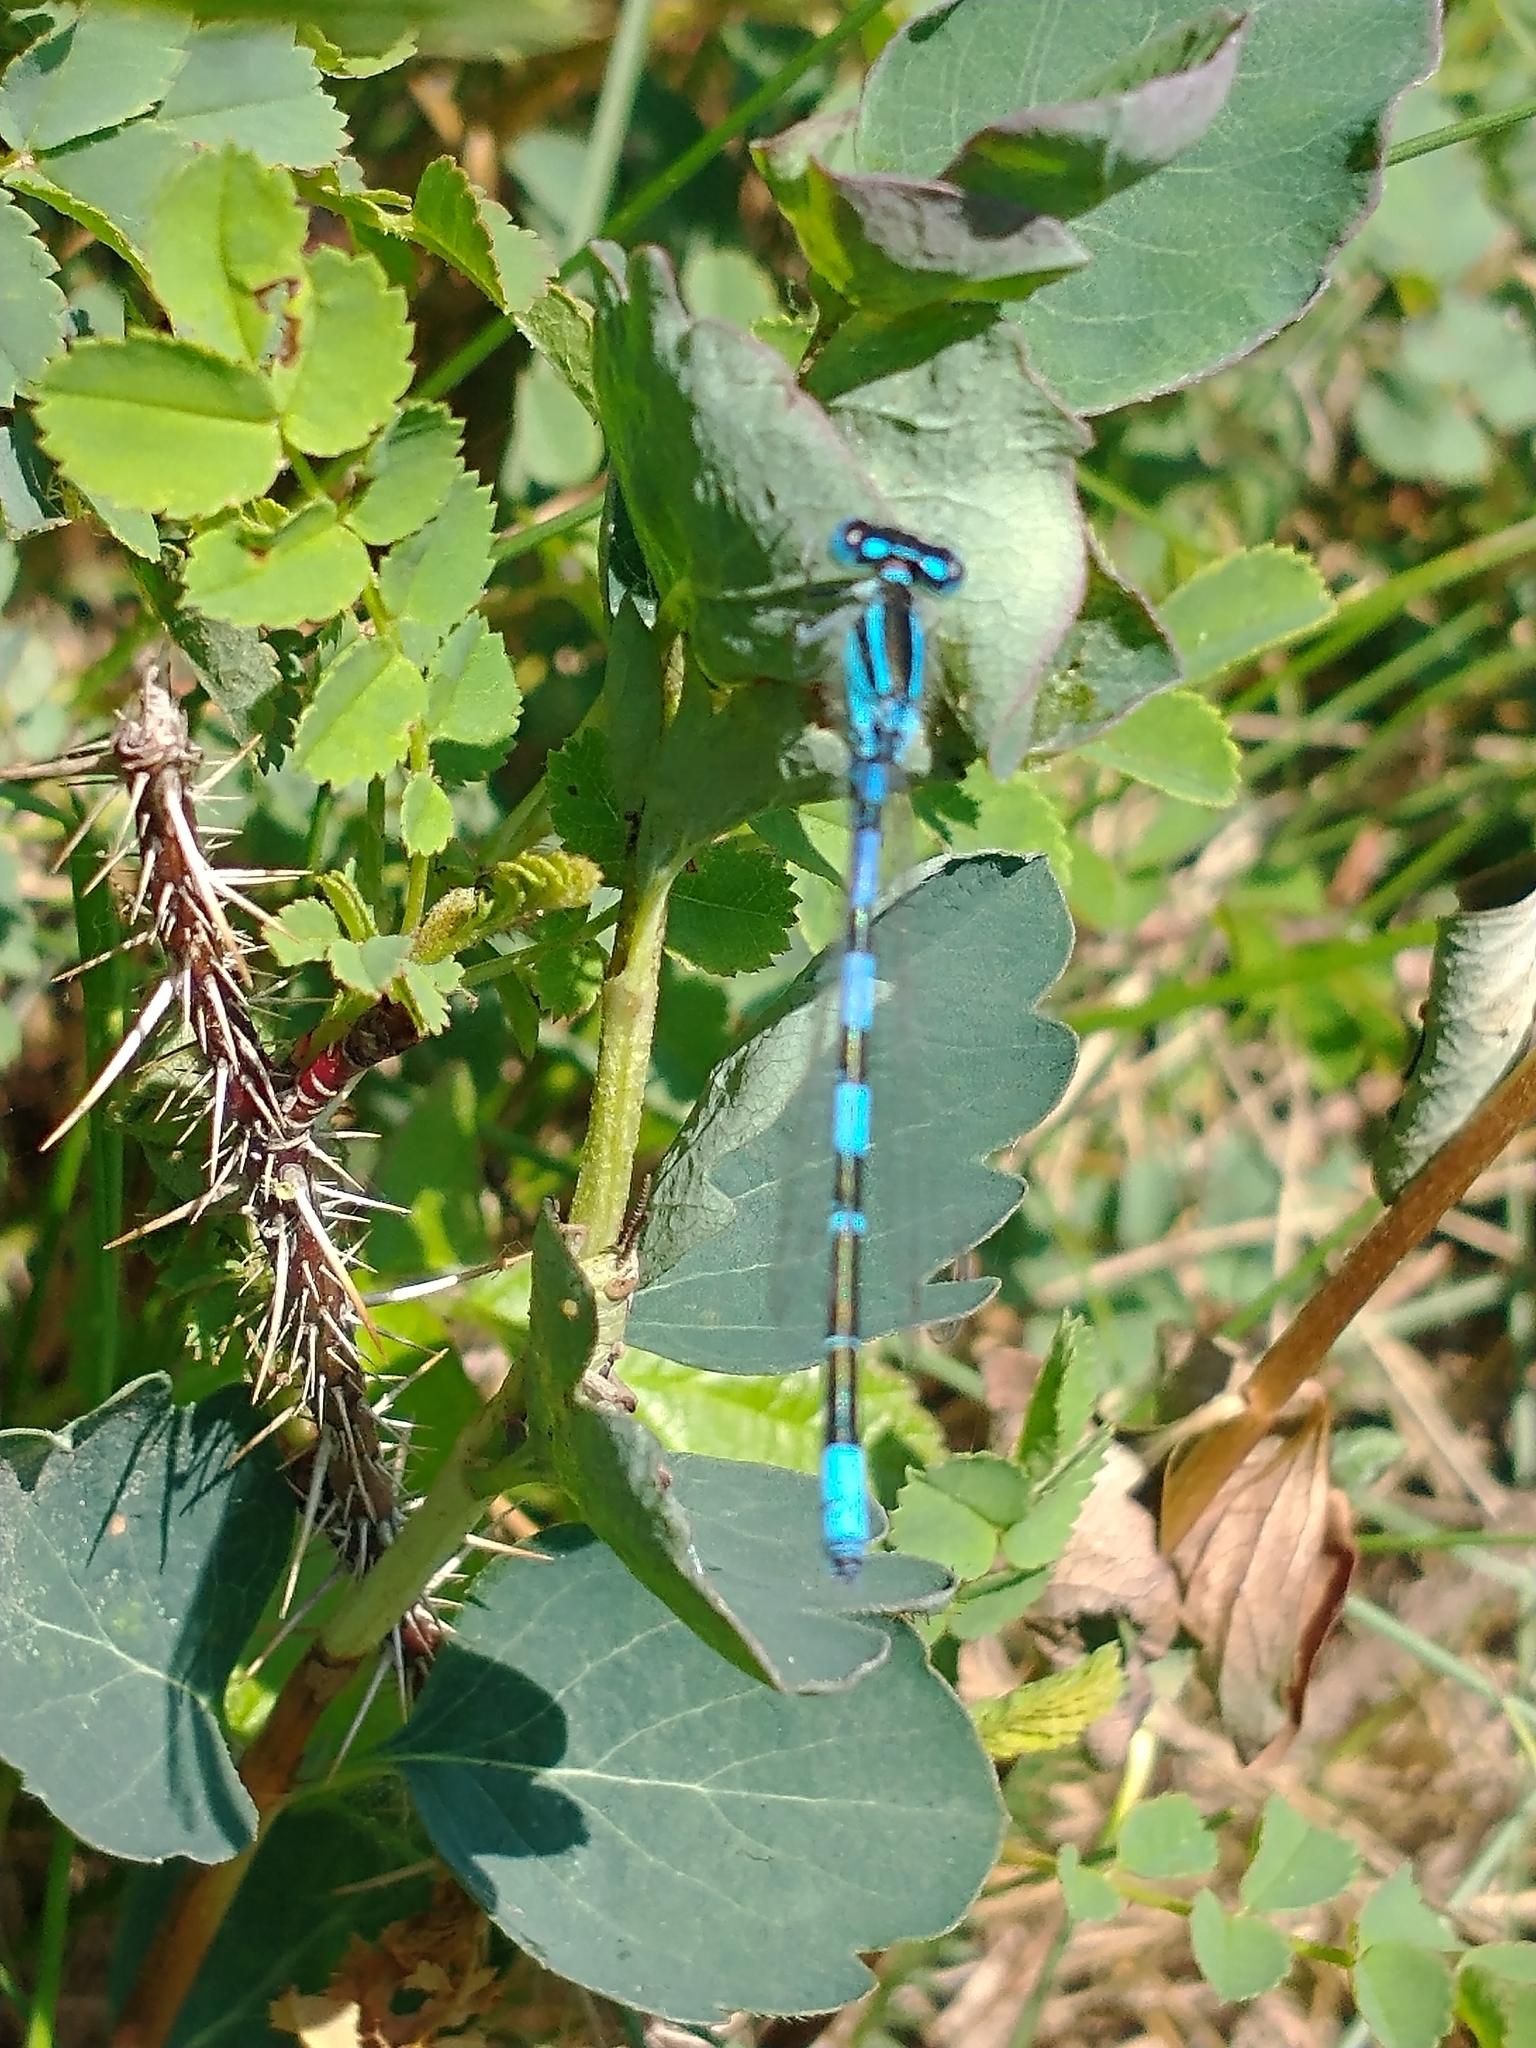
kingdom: Animalia
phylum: Arthropoda
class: Insecta
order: Odonata
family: Coenagrionidae
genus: Coenagrion
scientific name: Coenagrion scitulum
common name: Dainty bluet
